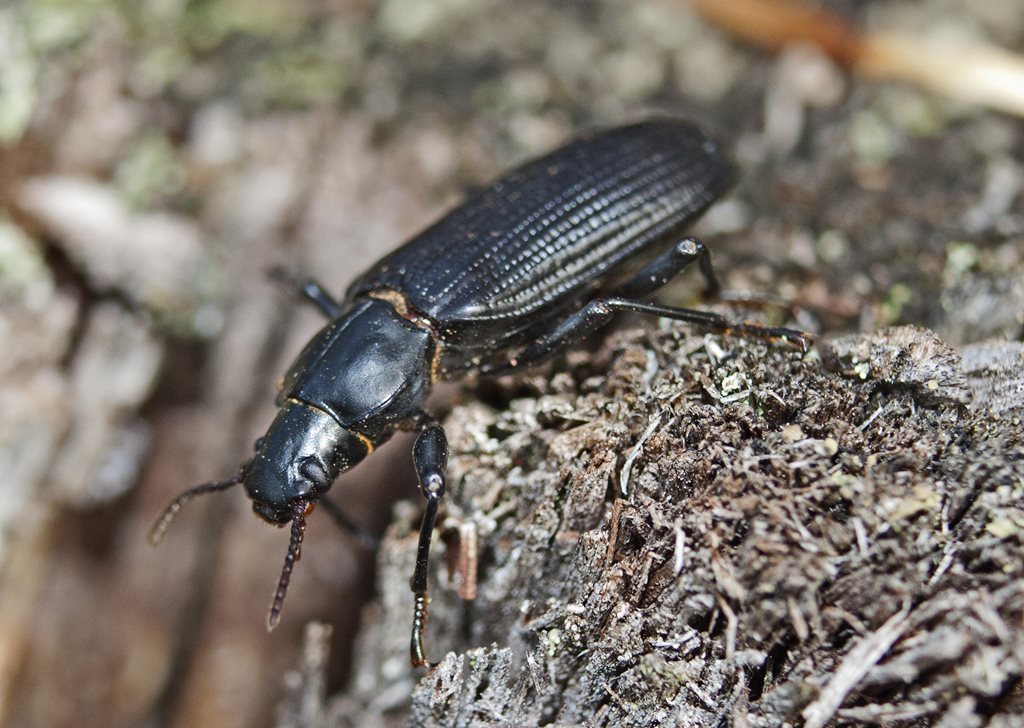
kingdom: Animalia
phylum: Arthropoda
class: Insecta
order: Coleoptera
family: Tenebrionidae
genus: Promethis
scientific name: Promethis angulata
